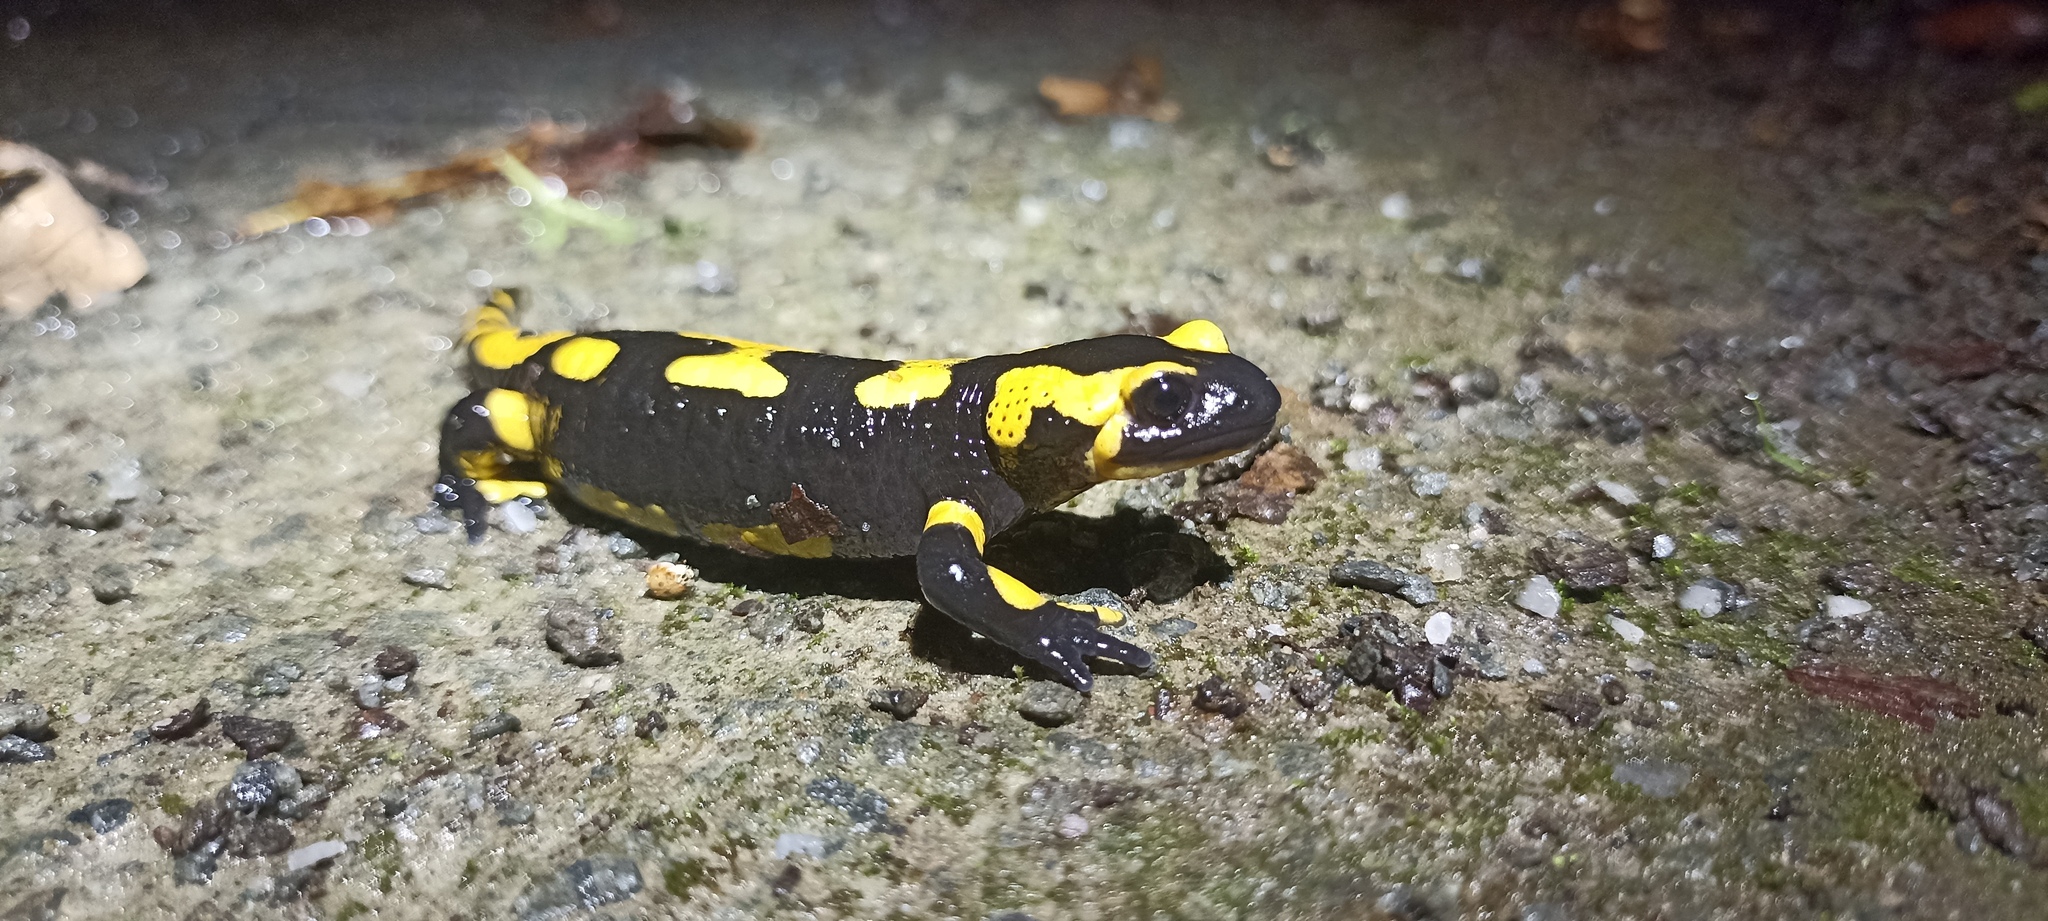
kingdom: Animalia
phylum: Chordata
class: Amphibia
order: Caudata
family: Salamandridae
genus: Salamandra
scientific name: Salamandra salamandra
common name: Fire salamander
